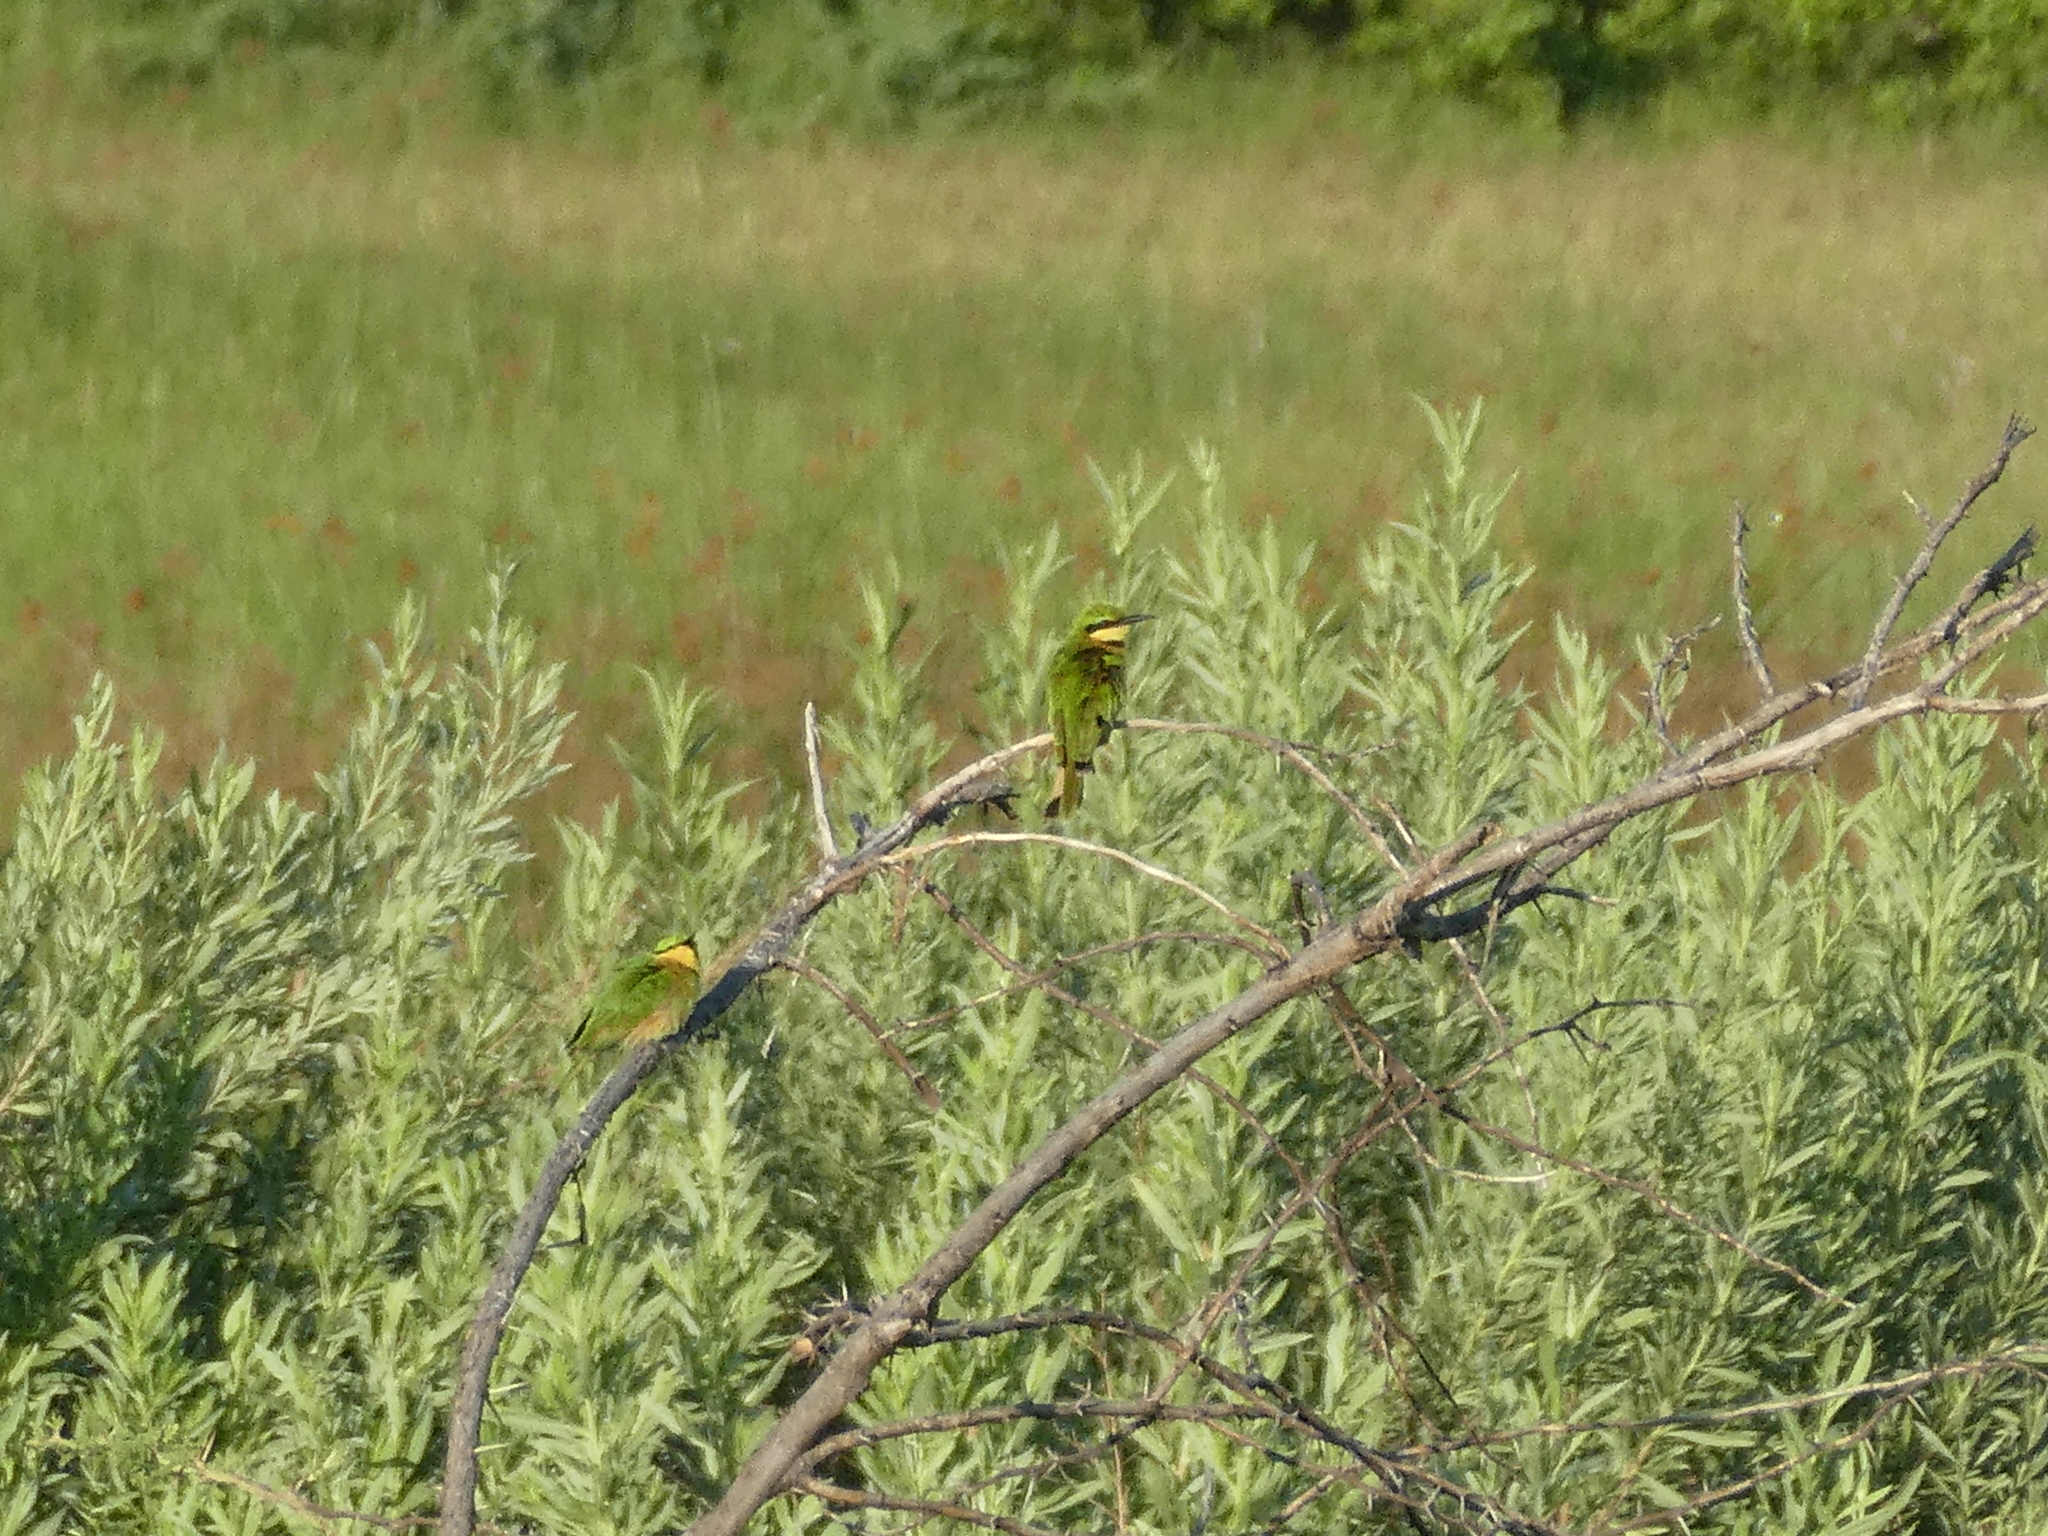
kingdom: Animalia
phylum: Chordata
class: Aves
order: Coraciiformes
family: Meropidae
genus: Merops
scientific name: Merops pusillus
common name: Little bee-eater
